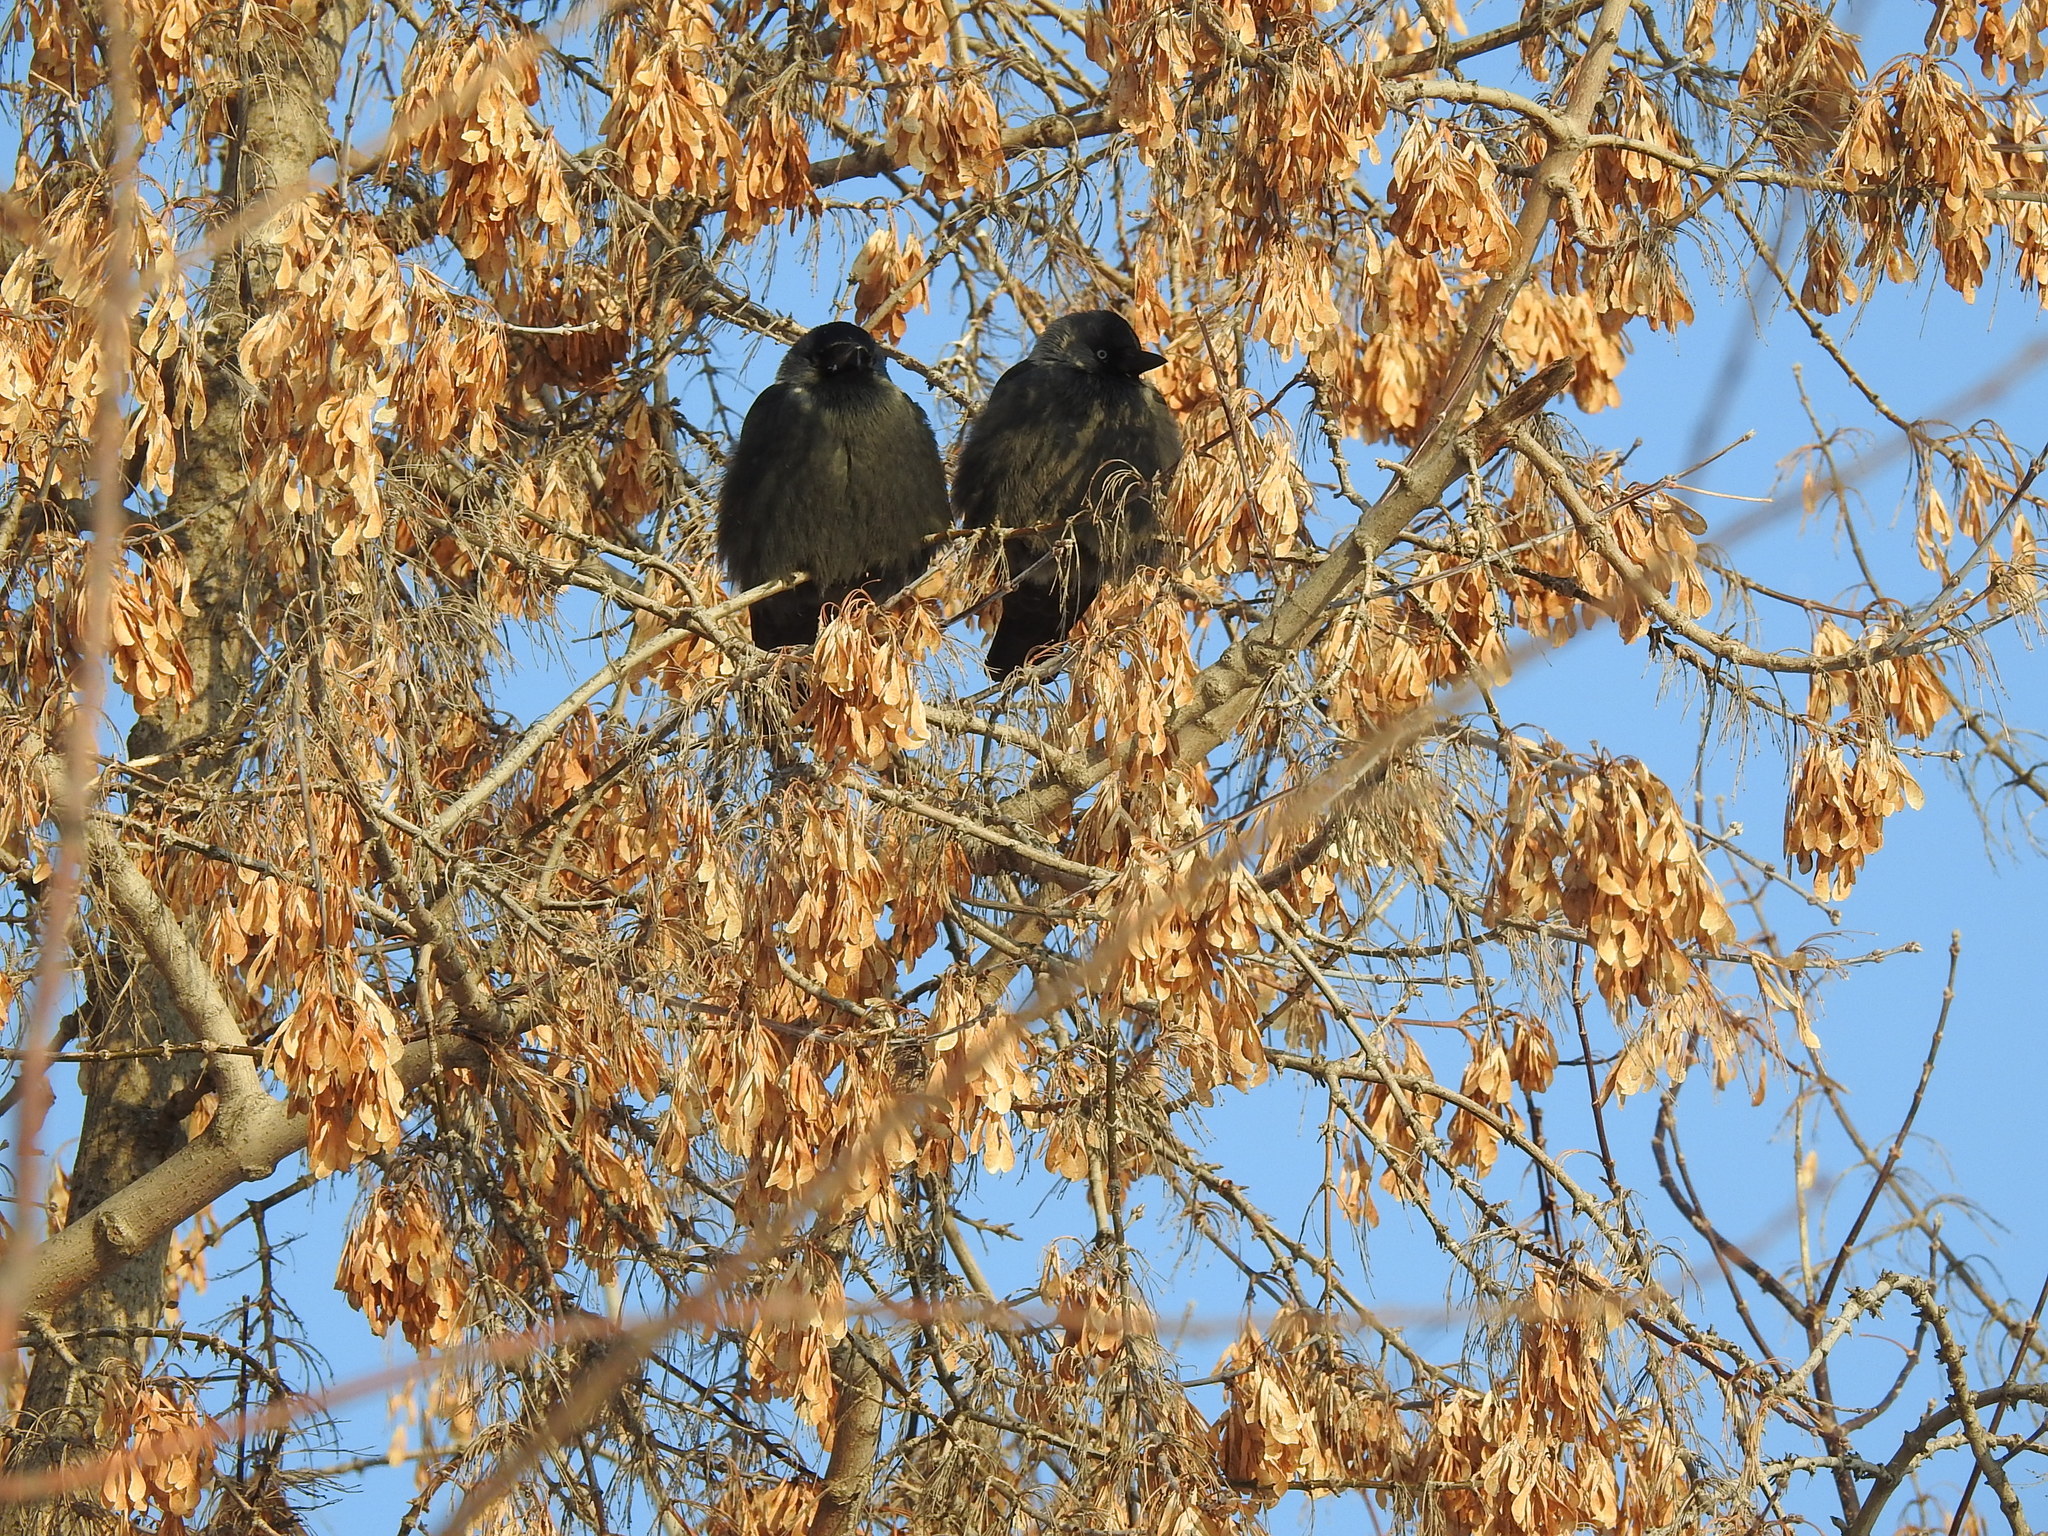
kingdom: Animalia
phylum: Chordata
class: Aves
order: Passeriformes
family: Corvidae
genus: Coloeus
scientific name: Coloeus monedula
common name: Western jackdaw
